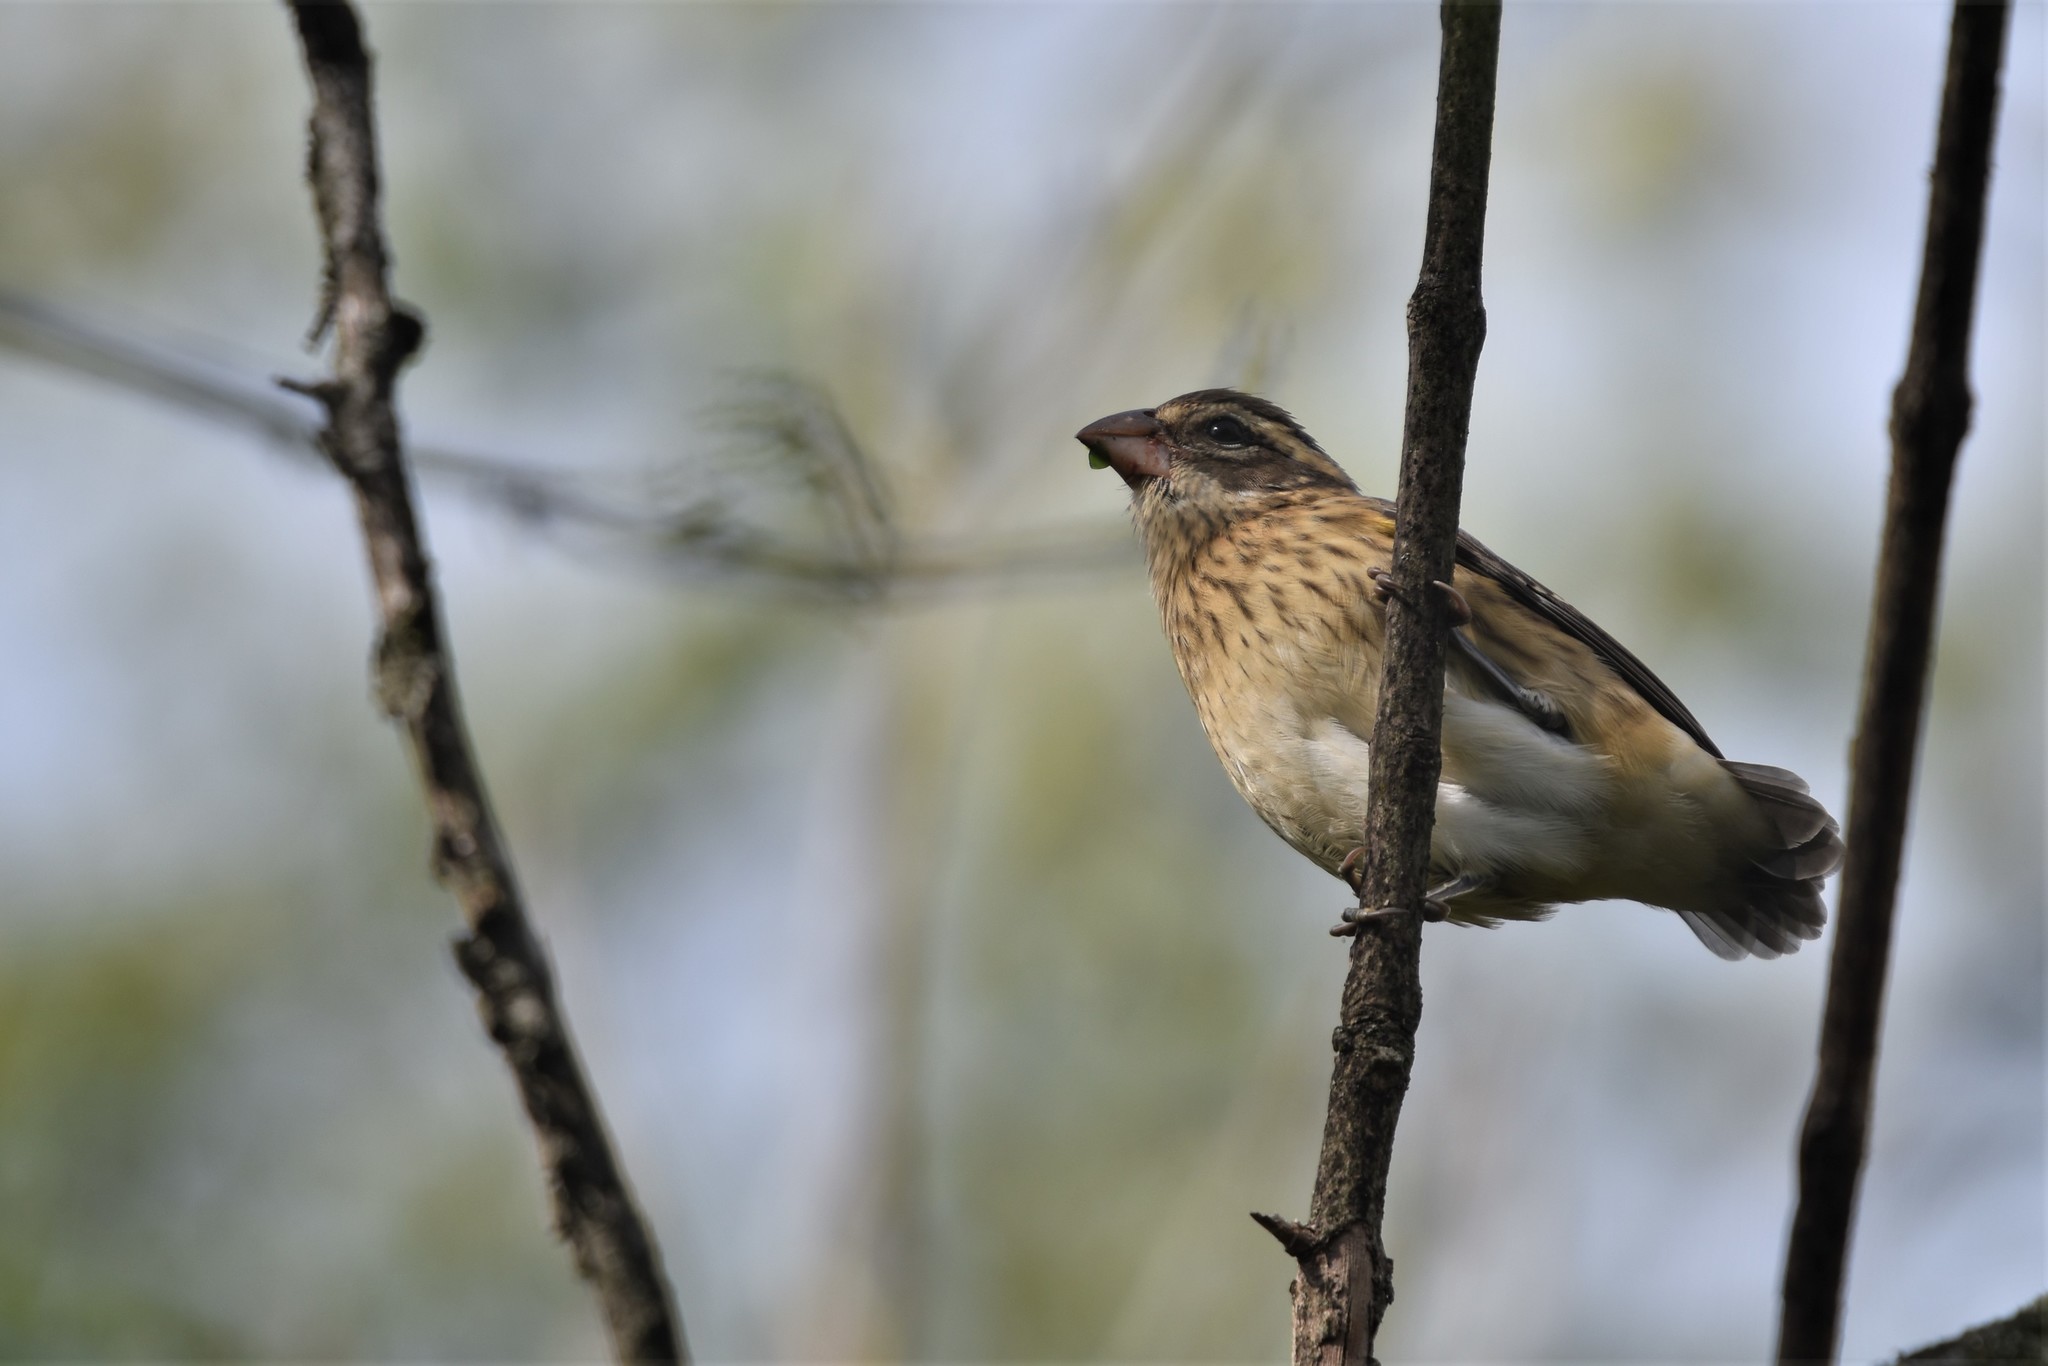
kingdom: Animalia
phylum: Chordata
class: Aves
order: Passeriformes
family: Cardinalidae
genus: Pheucticus
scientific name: Pheucticus ludovicianus
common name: Rose-breasted grosbeak
